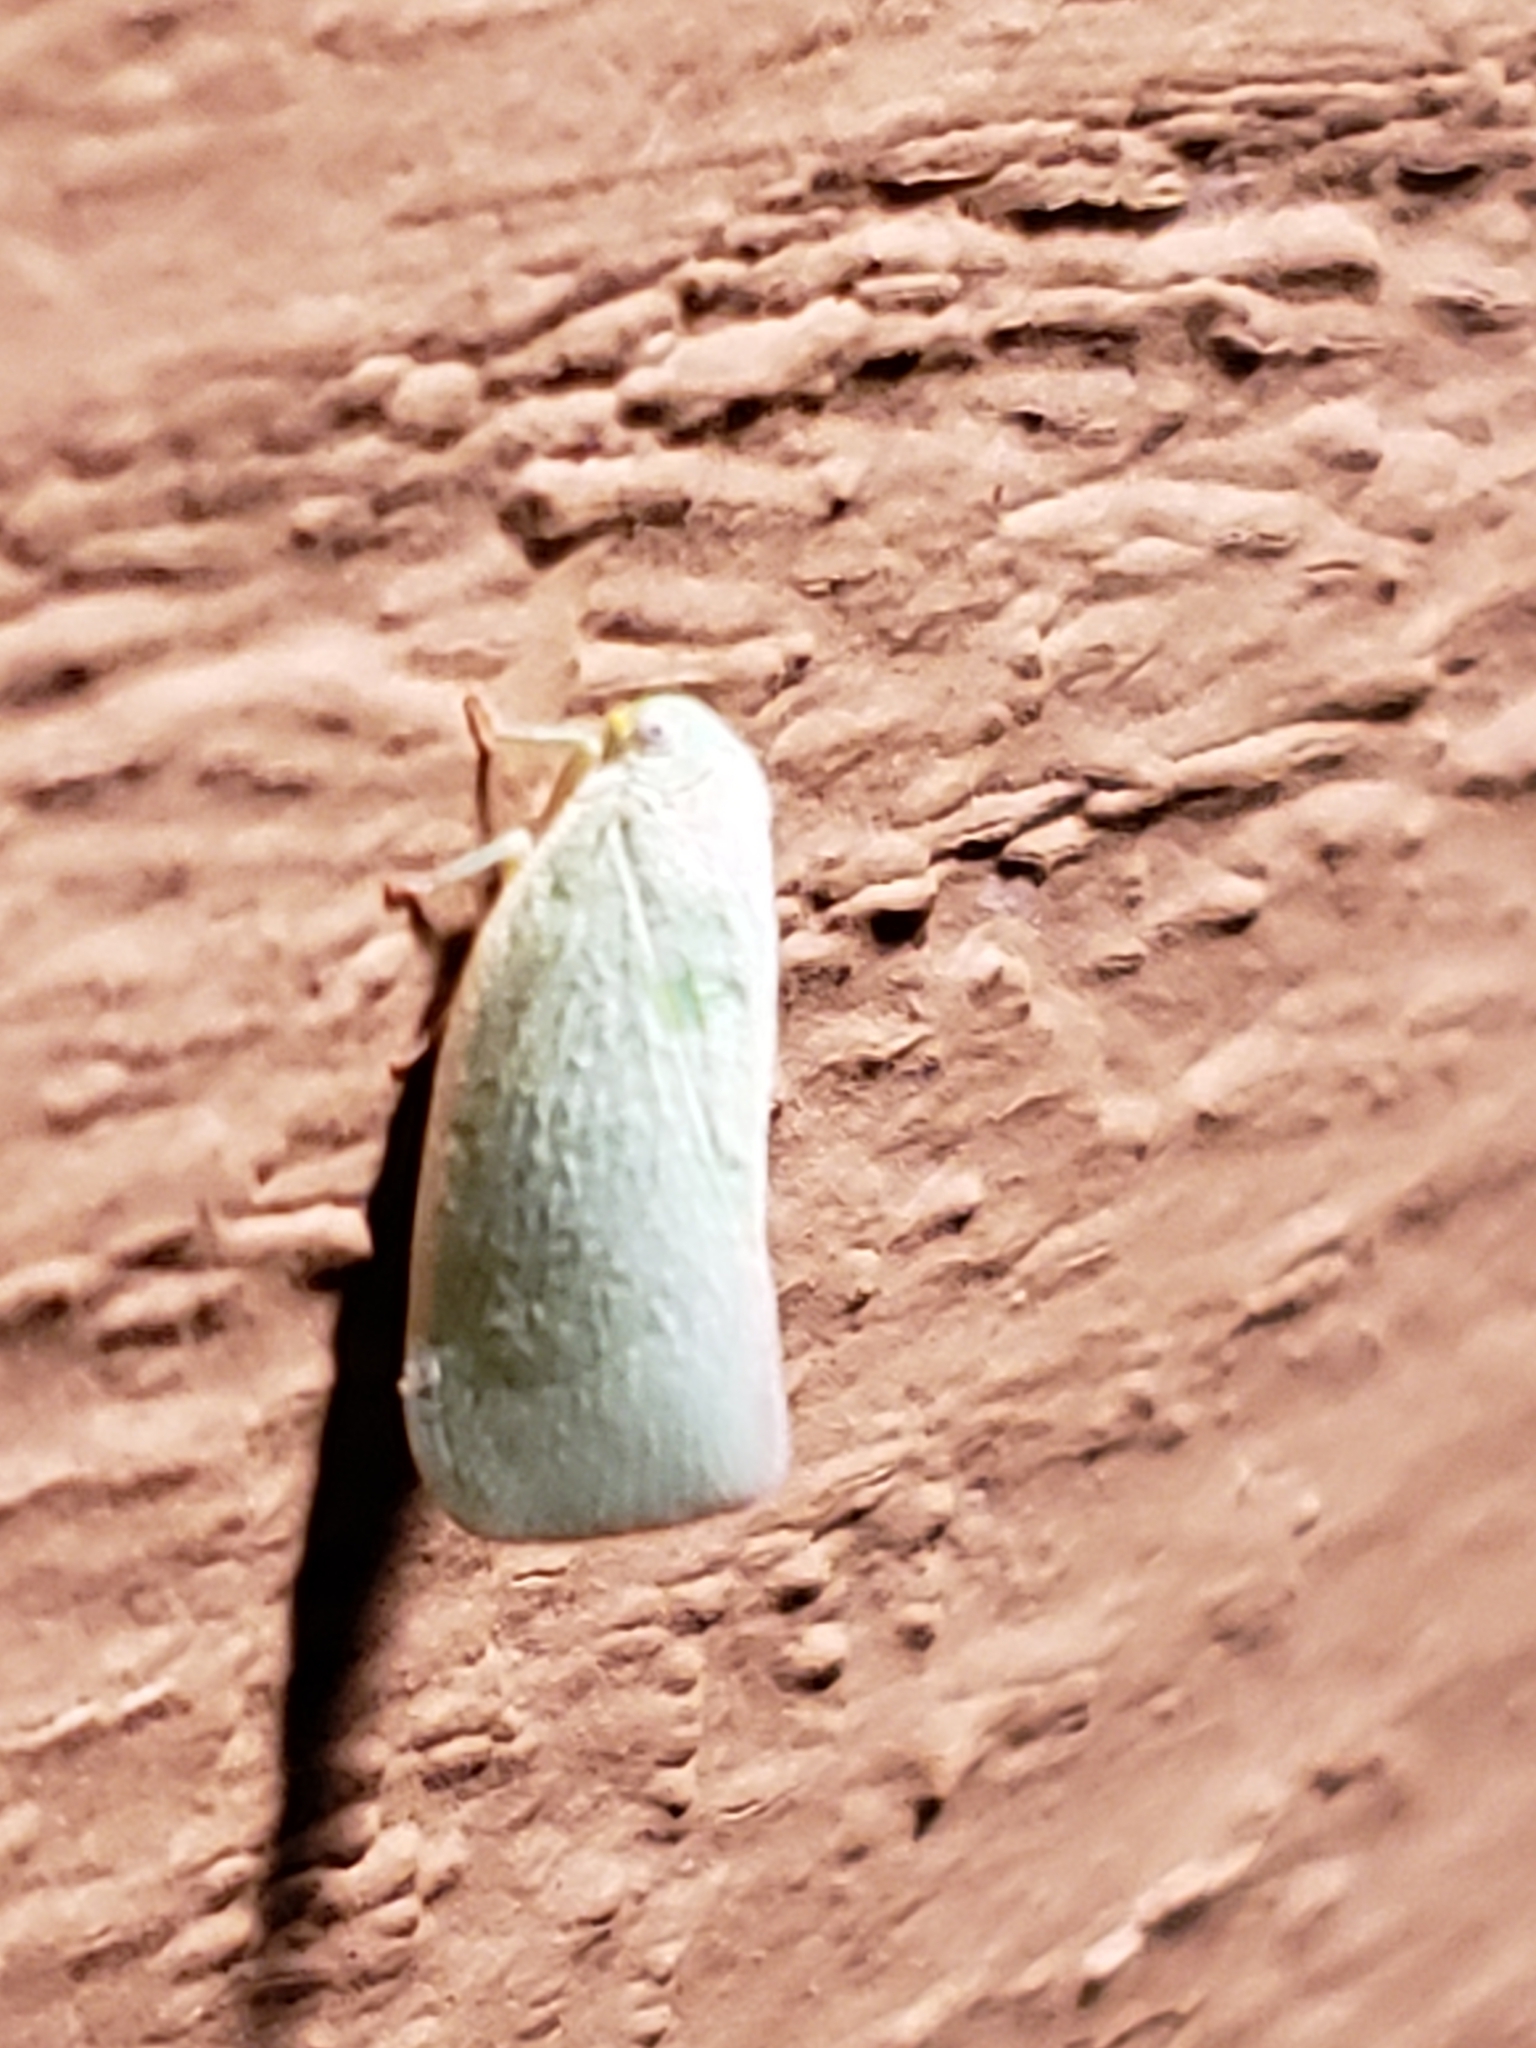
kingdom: Animalia
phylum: Arthropoda
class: Insecta
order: Hemiptera
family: Flatidae
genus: Flatormenis
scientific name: Flatormenis proxima
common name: Northern flatid planthopper
